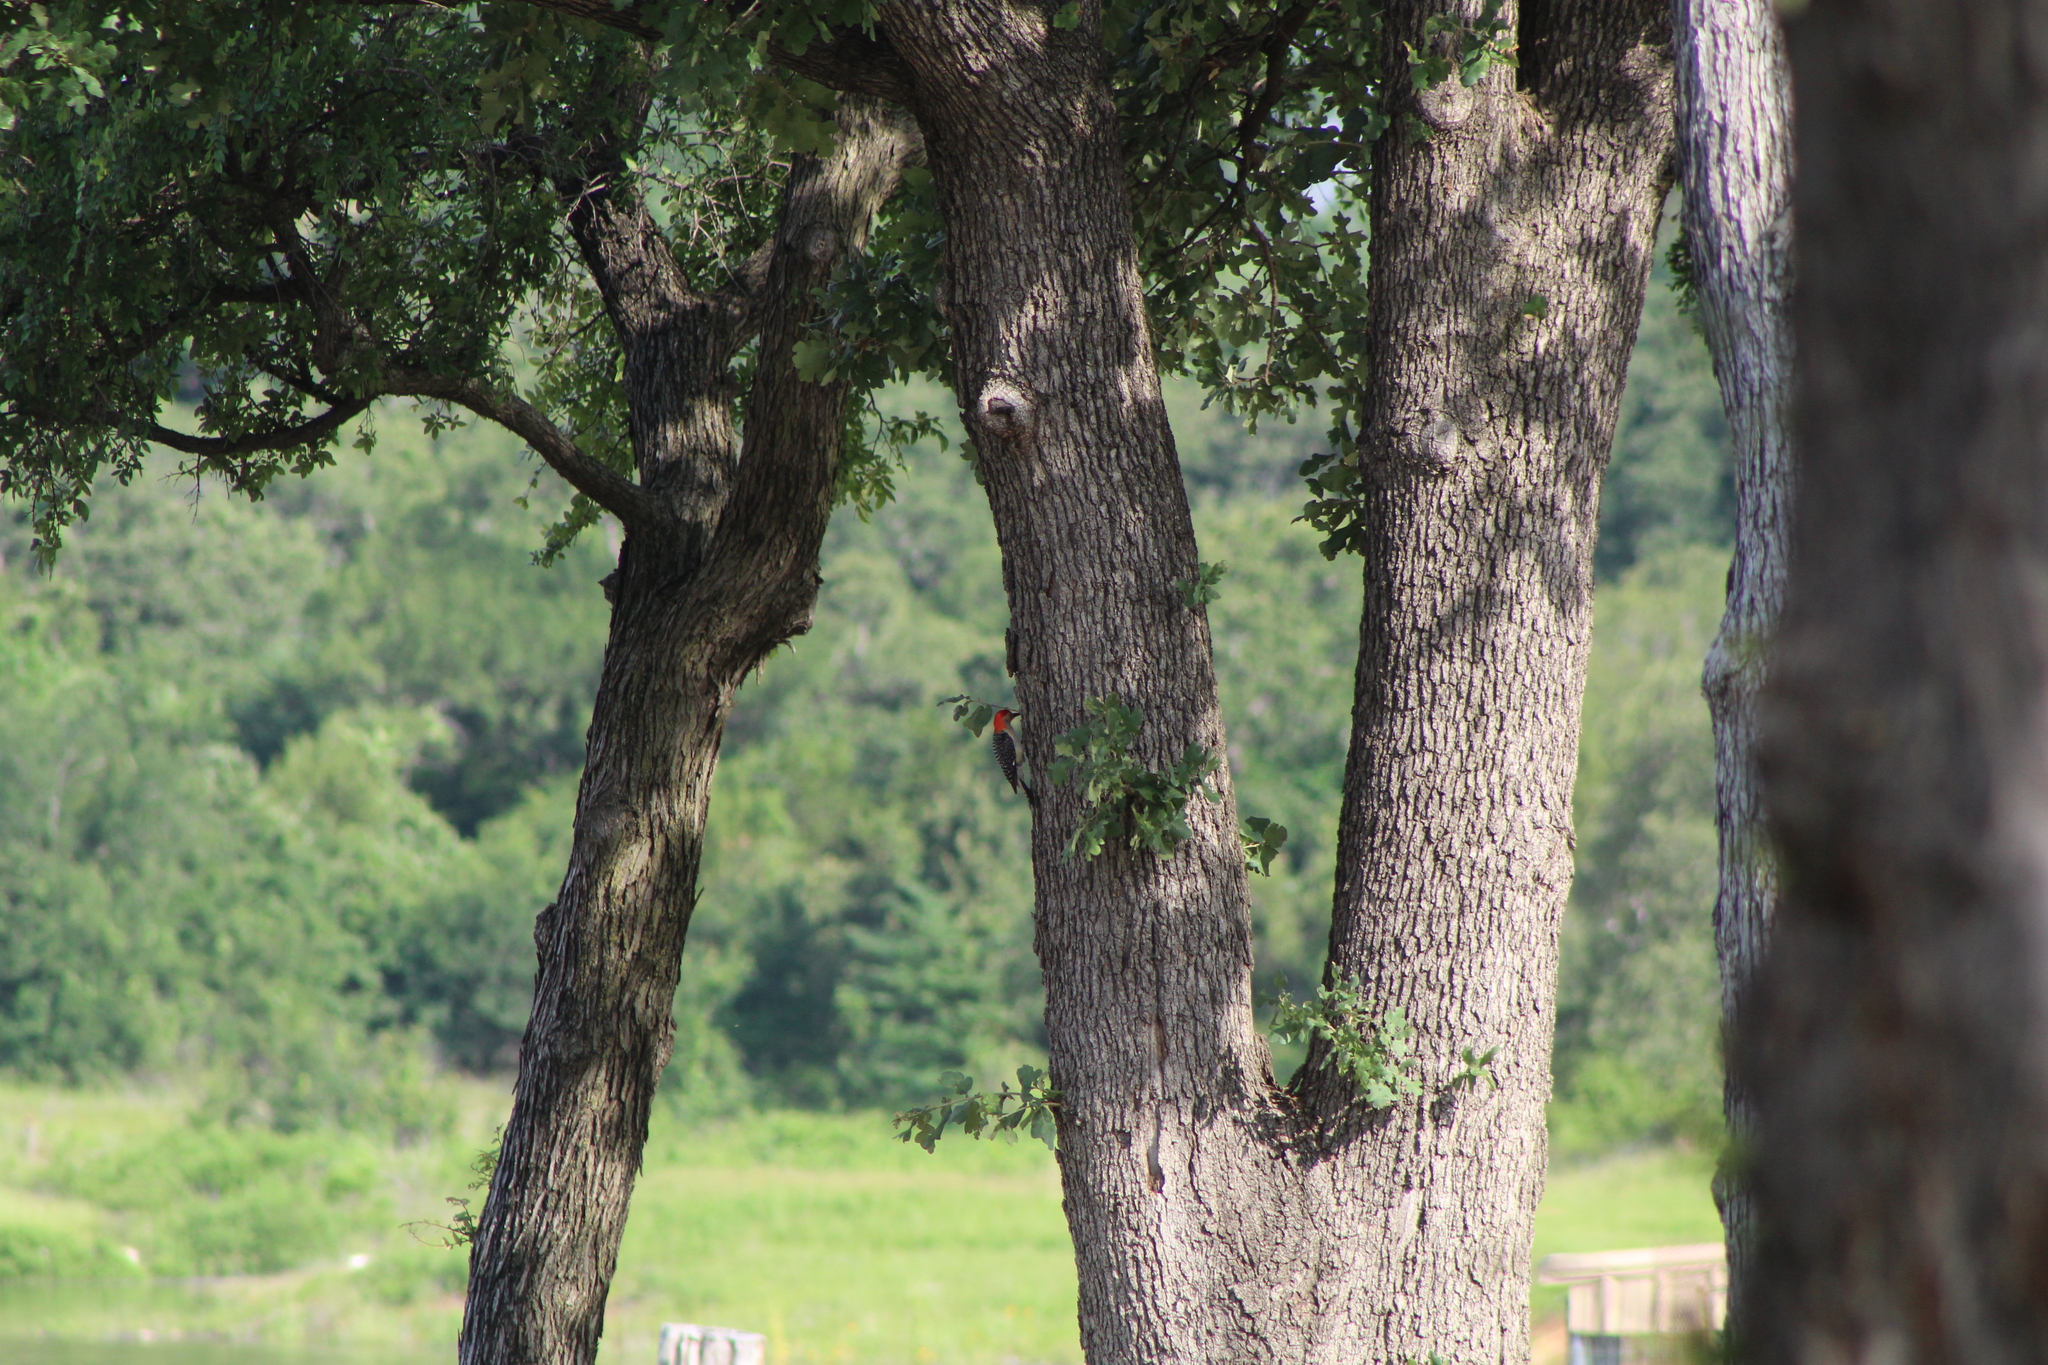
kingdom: Animalia
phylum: Chordata
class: Aves
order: Piciformes
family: Picidae
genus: Melanerpes
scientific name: Melanerpes carolinus
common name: Red-bellied woodpecker
